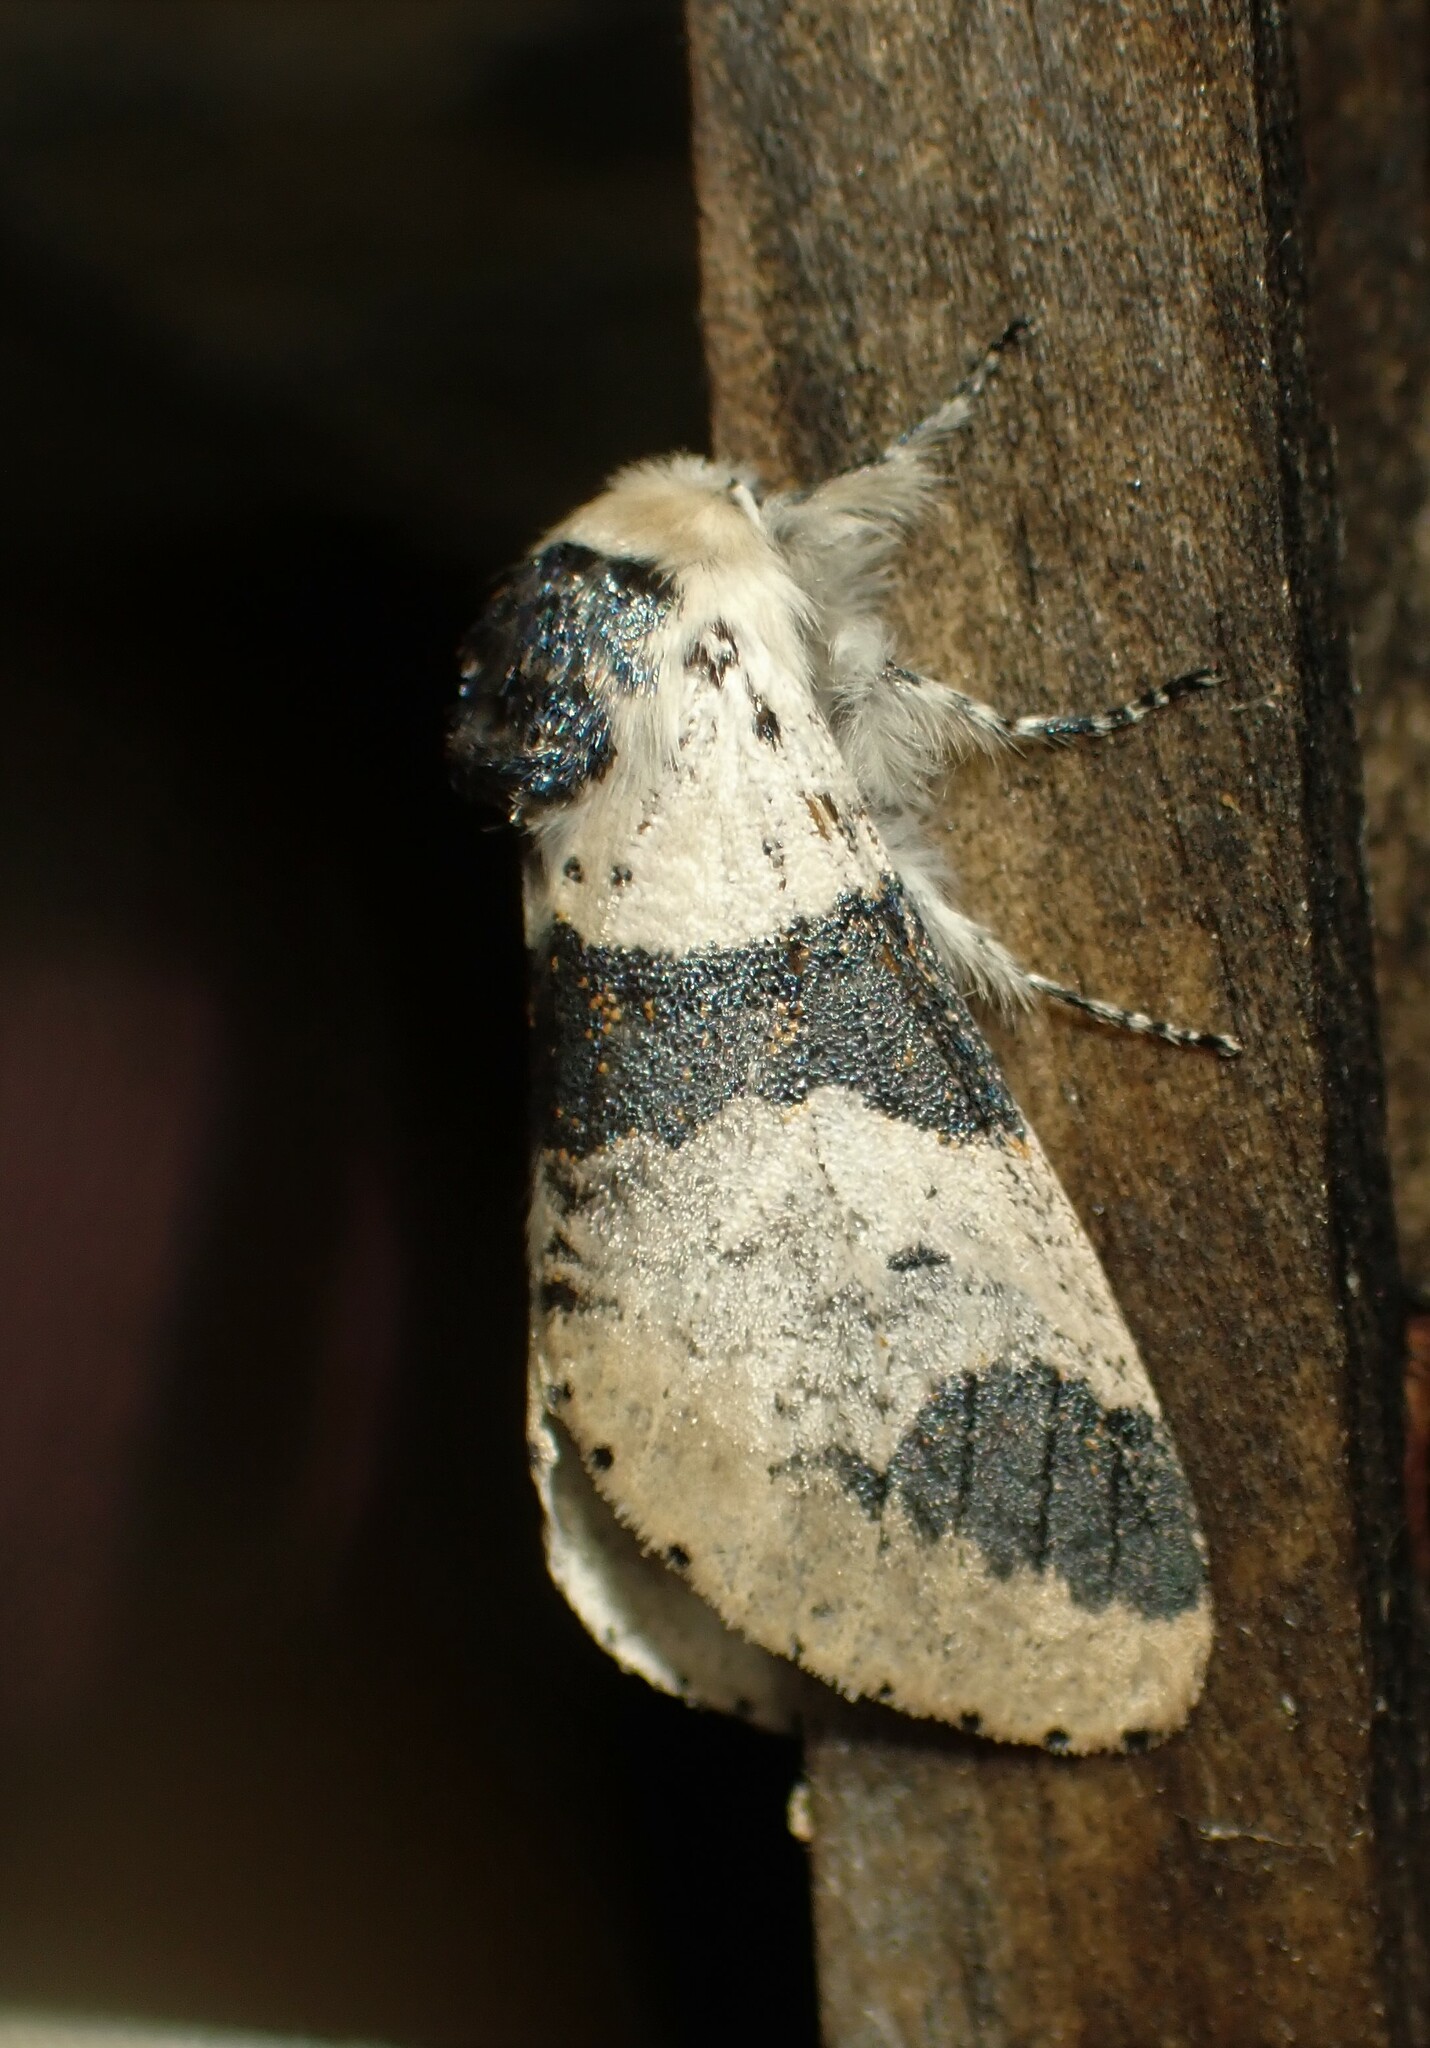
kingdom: Animalia
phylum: Arthropoda
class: Insecta
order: Lepidoptera
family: Notodontidae
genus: Furcula
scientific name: Furcula modesta
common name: Modest furcula moth
